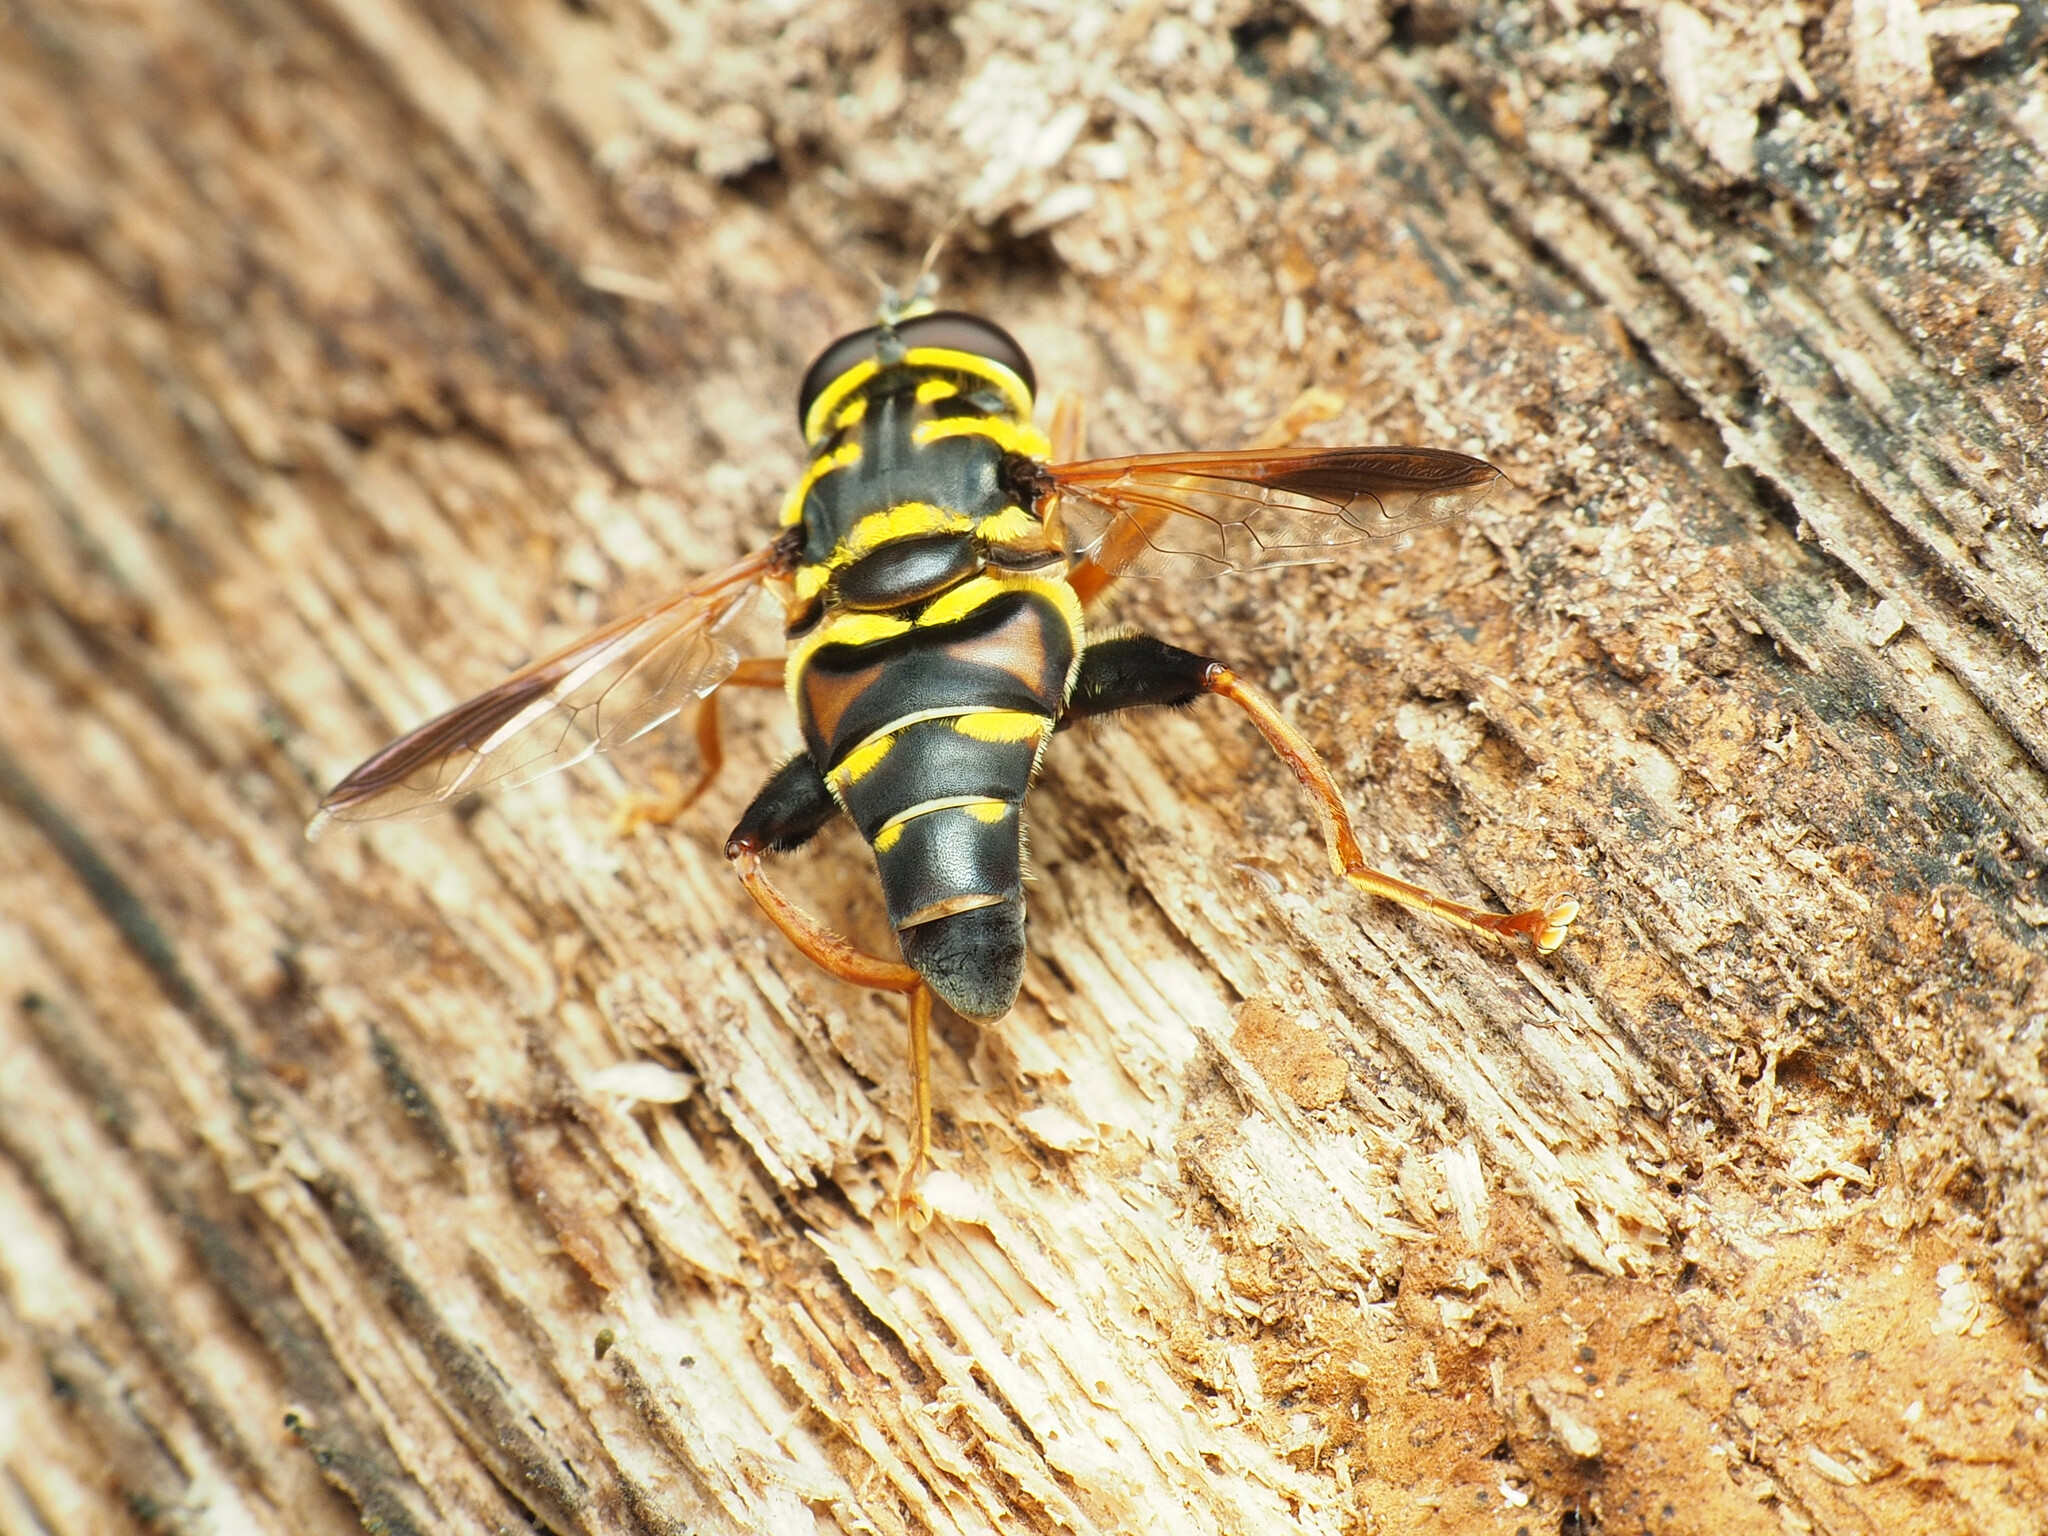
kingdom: Animalia
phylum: Arthropoda
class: Insecta
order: Diptera
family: Syrphidae
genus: Meromacrus
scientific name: Meromacrus acutus
